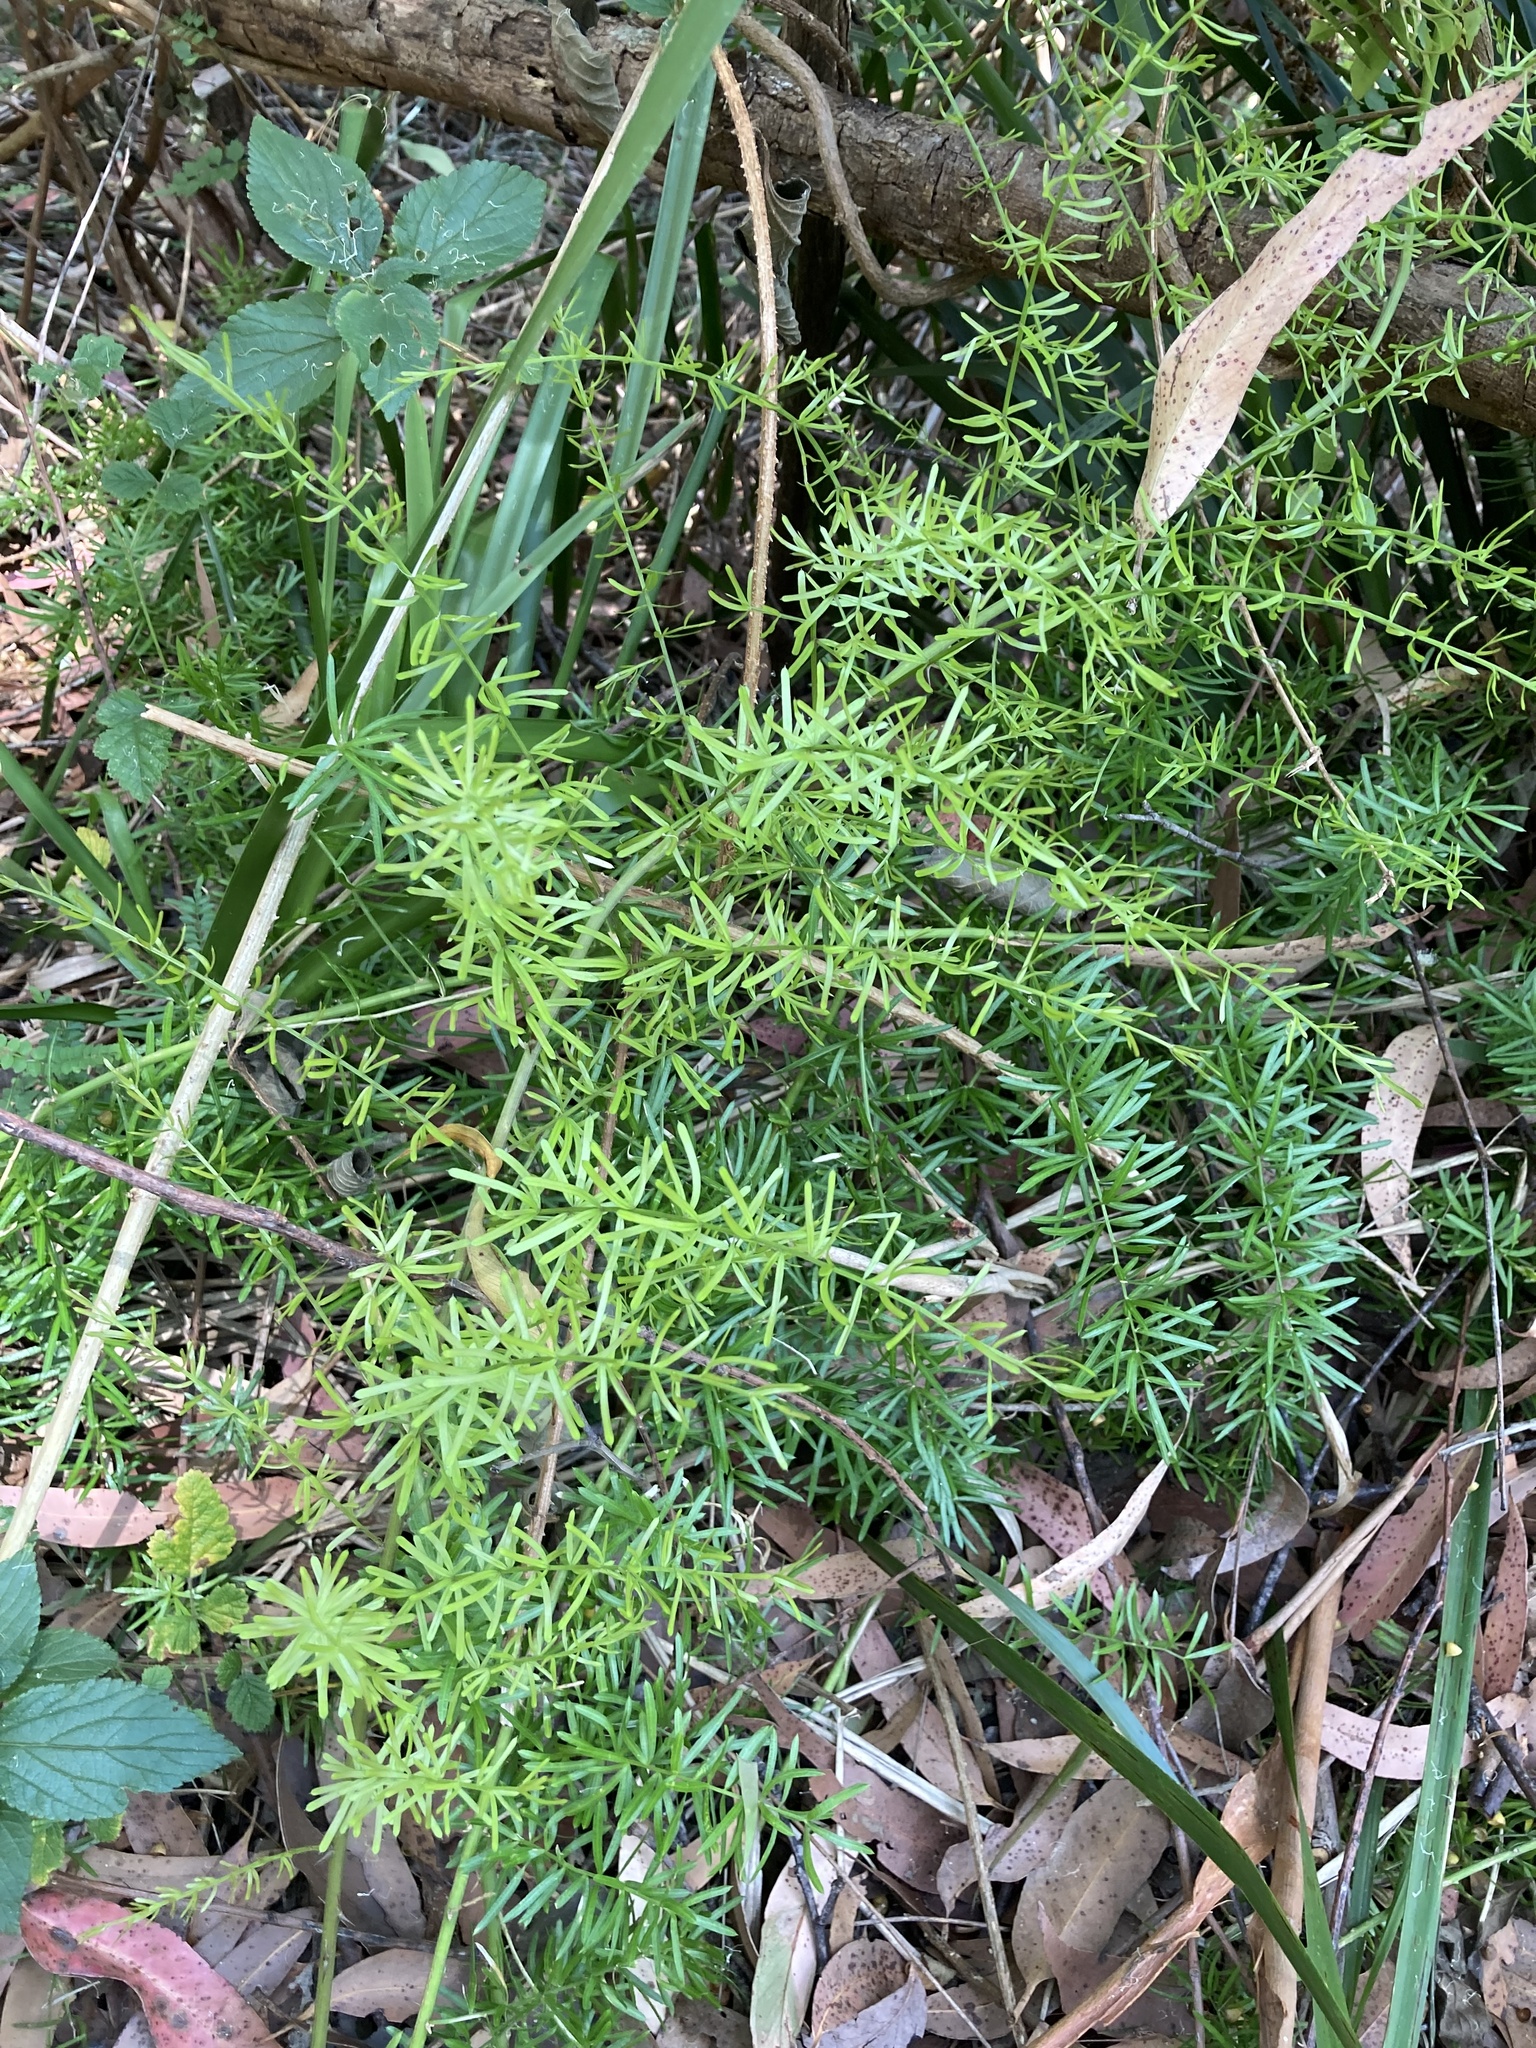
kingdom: Plantae
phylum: Tracheophyta
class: Liliopsida
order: Asparagales
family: Asparagaceae
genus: Asparagus
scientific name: Asparagus aethiopicus
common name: Sprenger's asparagus fern
